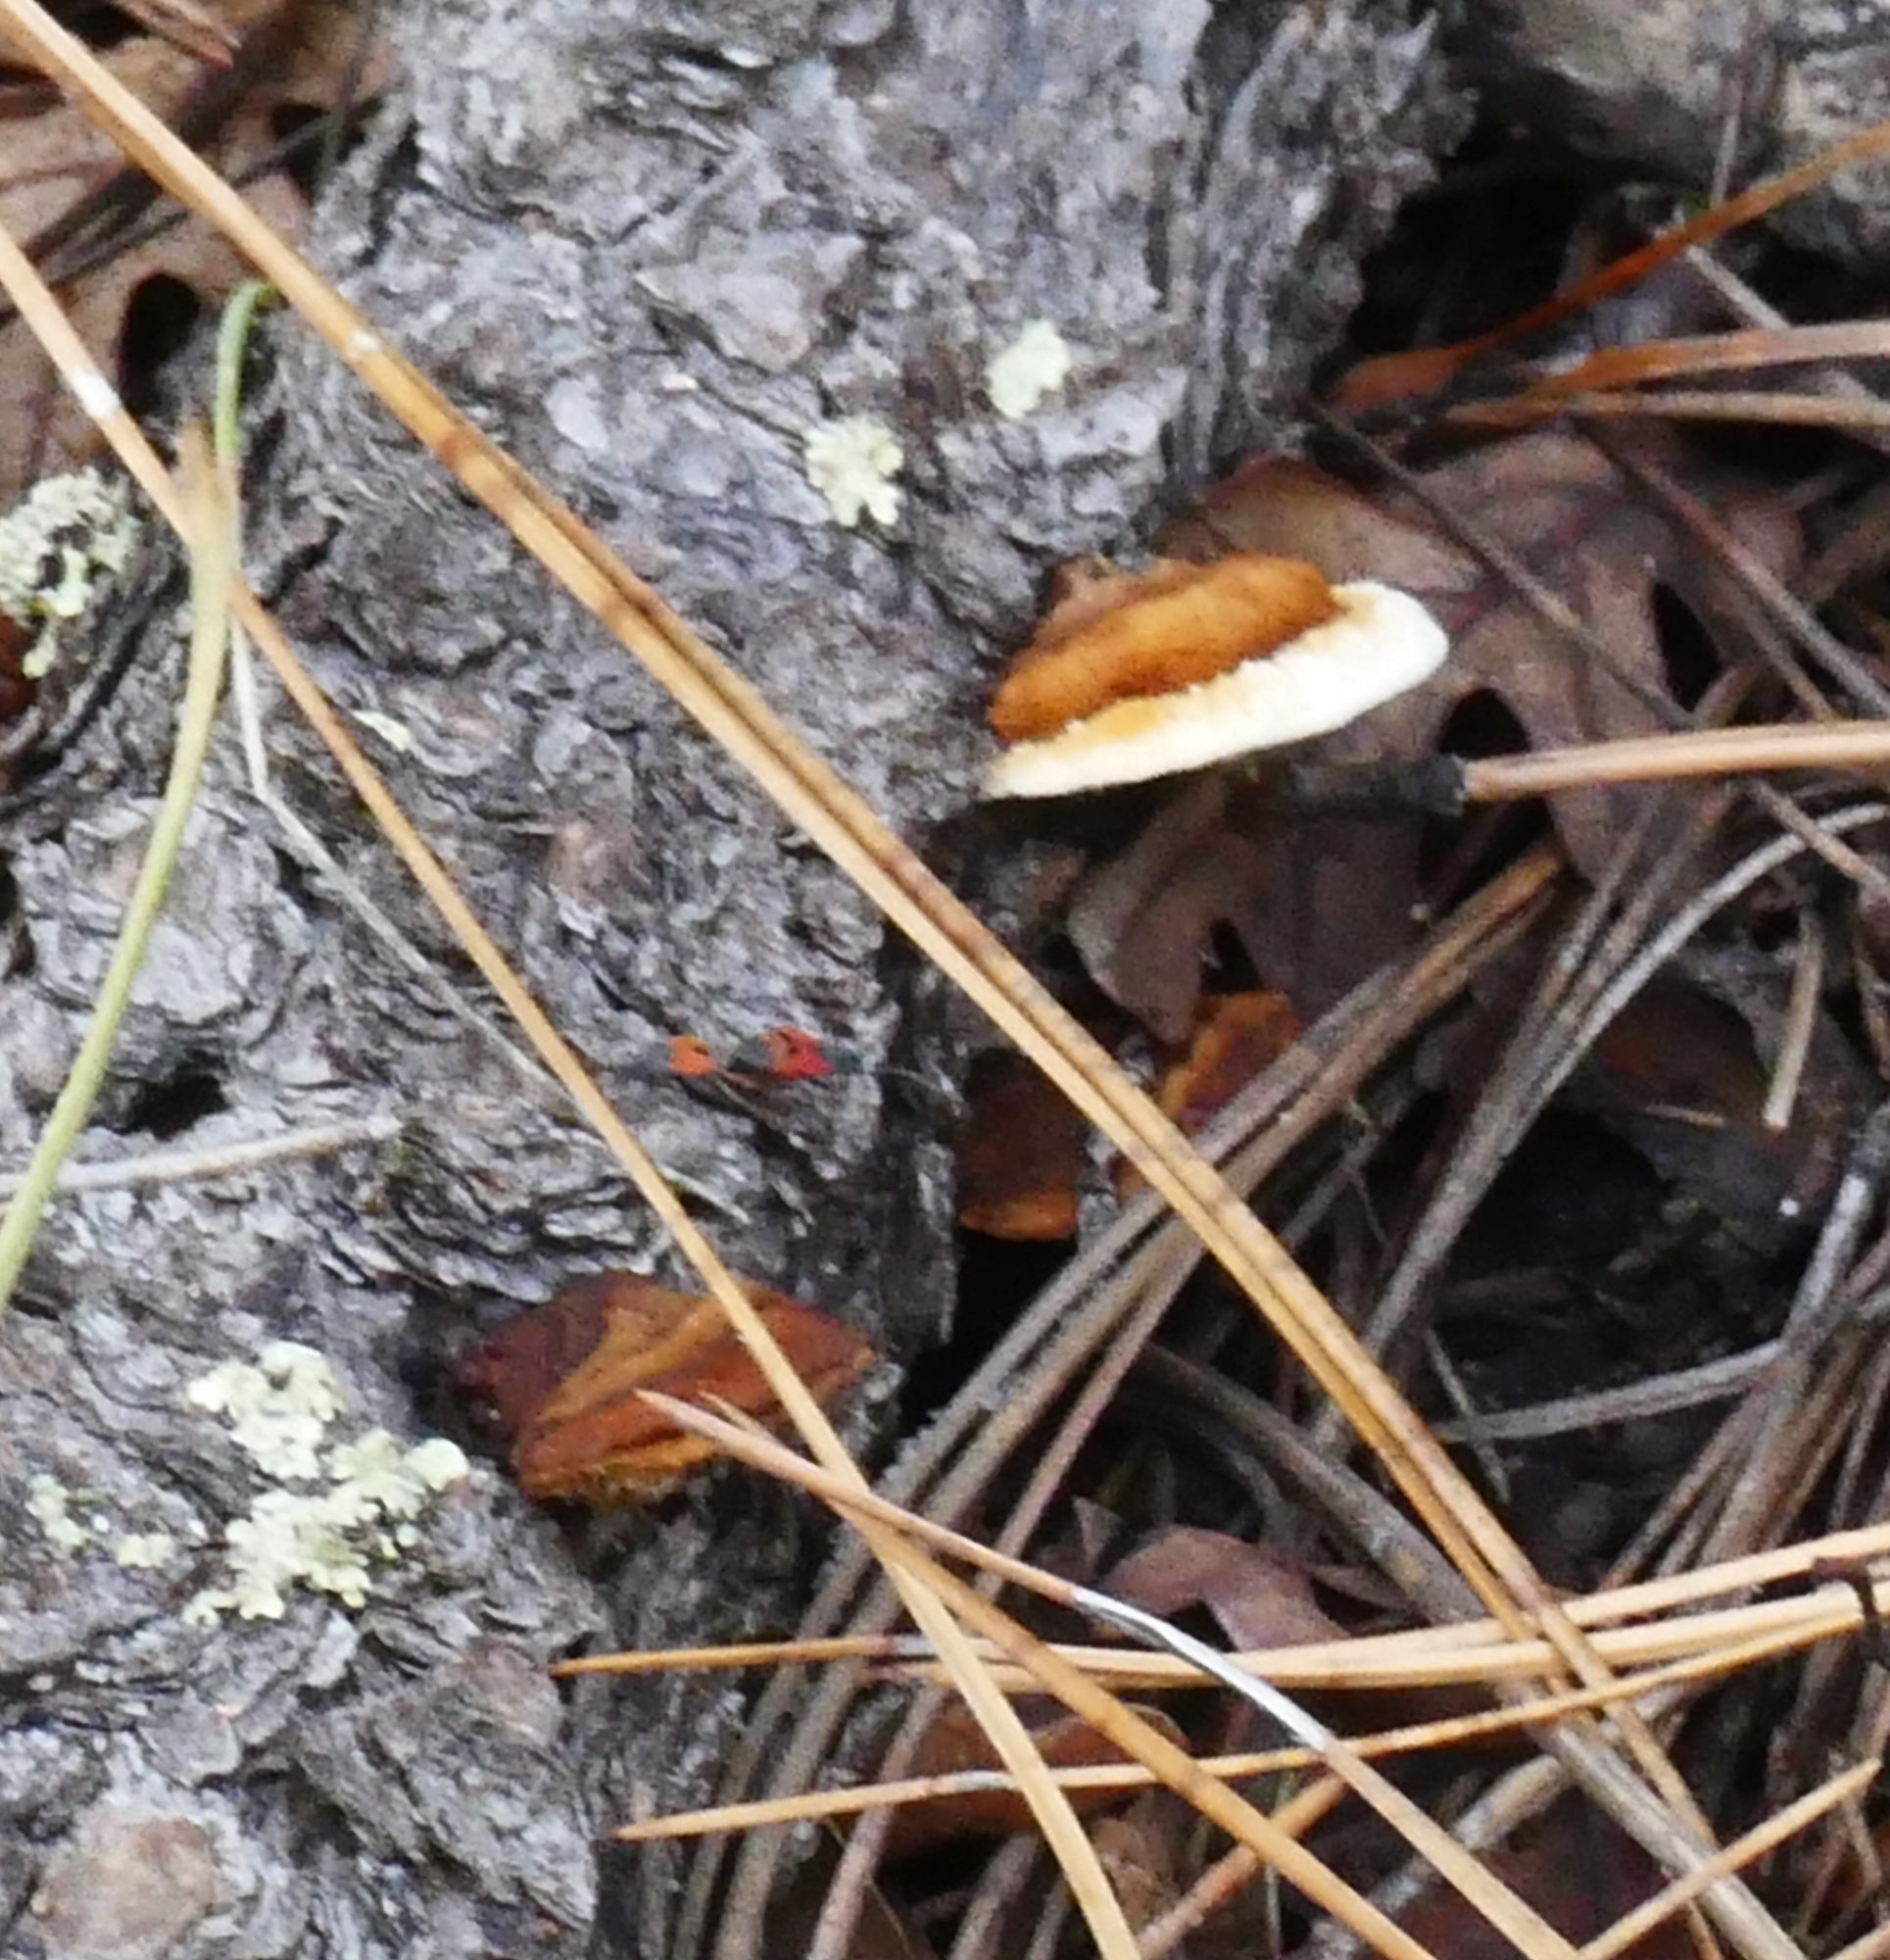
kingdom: Fungi
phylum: Basidiomycota
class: Agaricomycetes
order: Gloeophyllales
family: Gloeophyllaceae
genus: Gloeophyllum
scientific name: Gloeophyllum sepiarium
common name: Conifer mazegill
